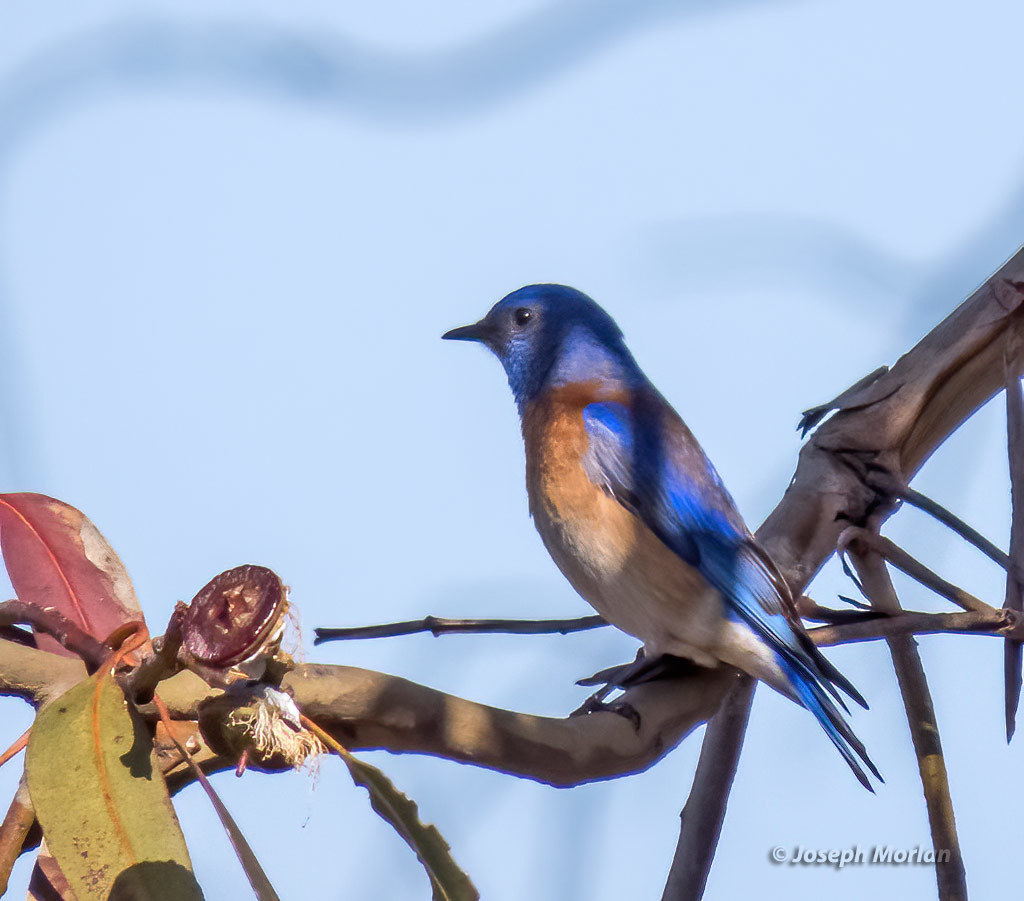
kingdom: Animalia
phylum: Chordata
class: Aves
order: Passeriformes
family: Turdidae
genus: Sialia
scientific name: Sialia mexicana
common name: Western bluebird
